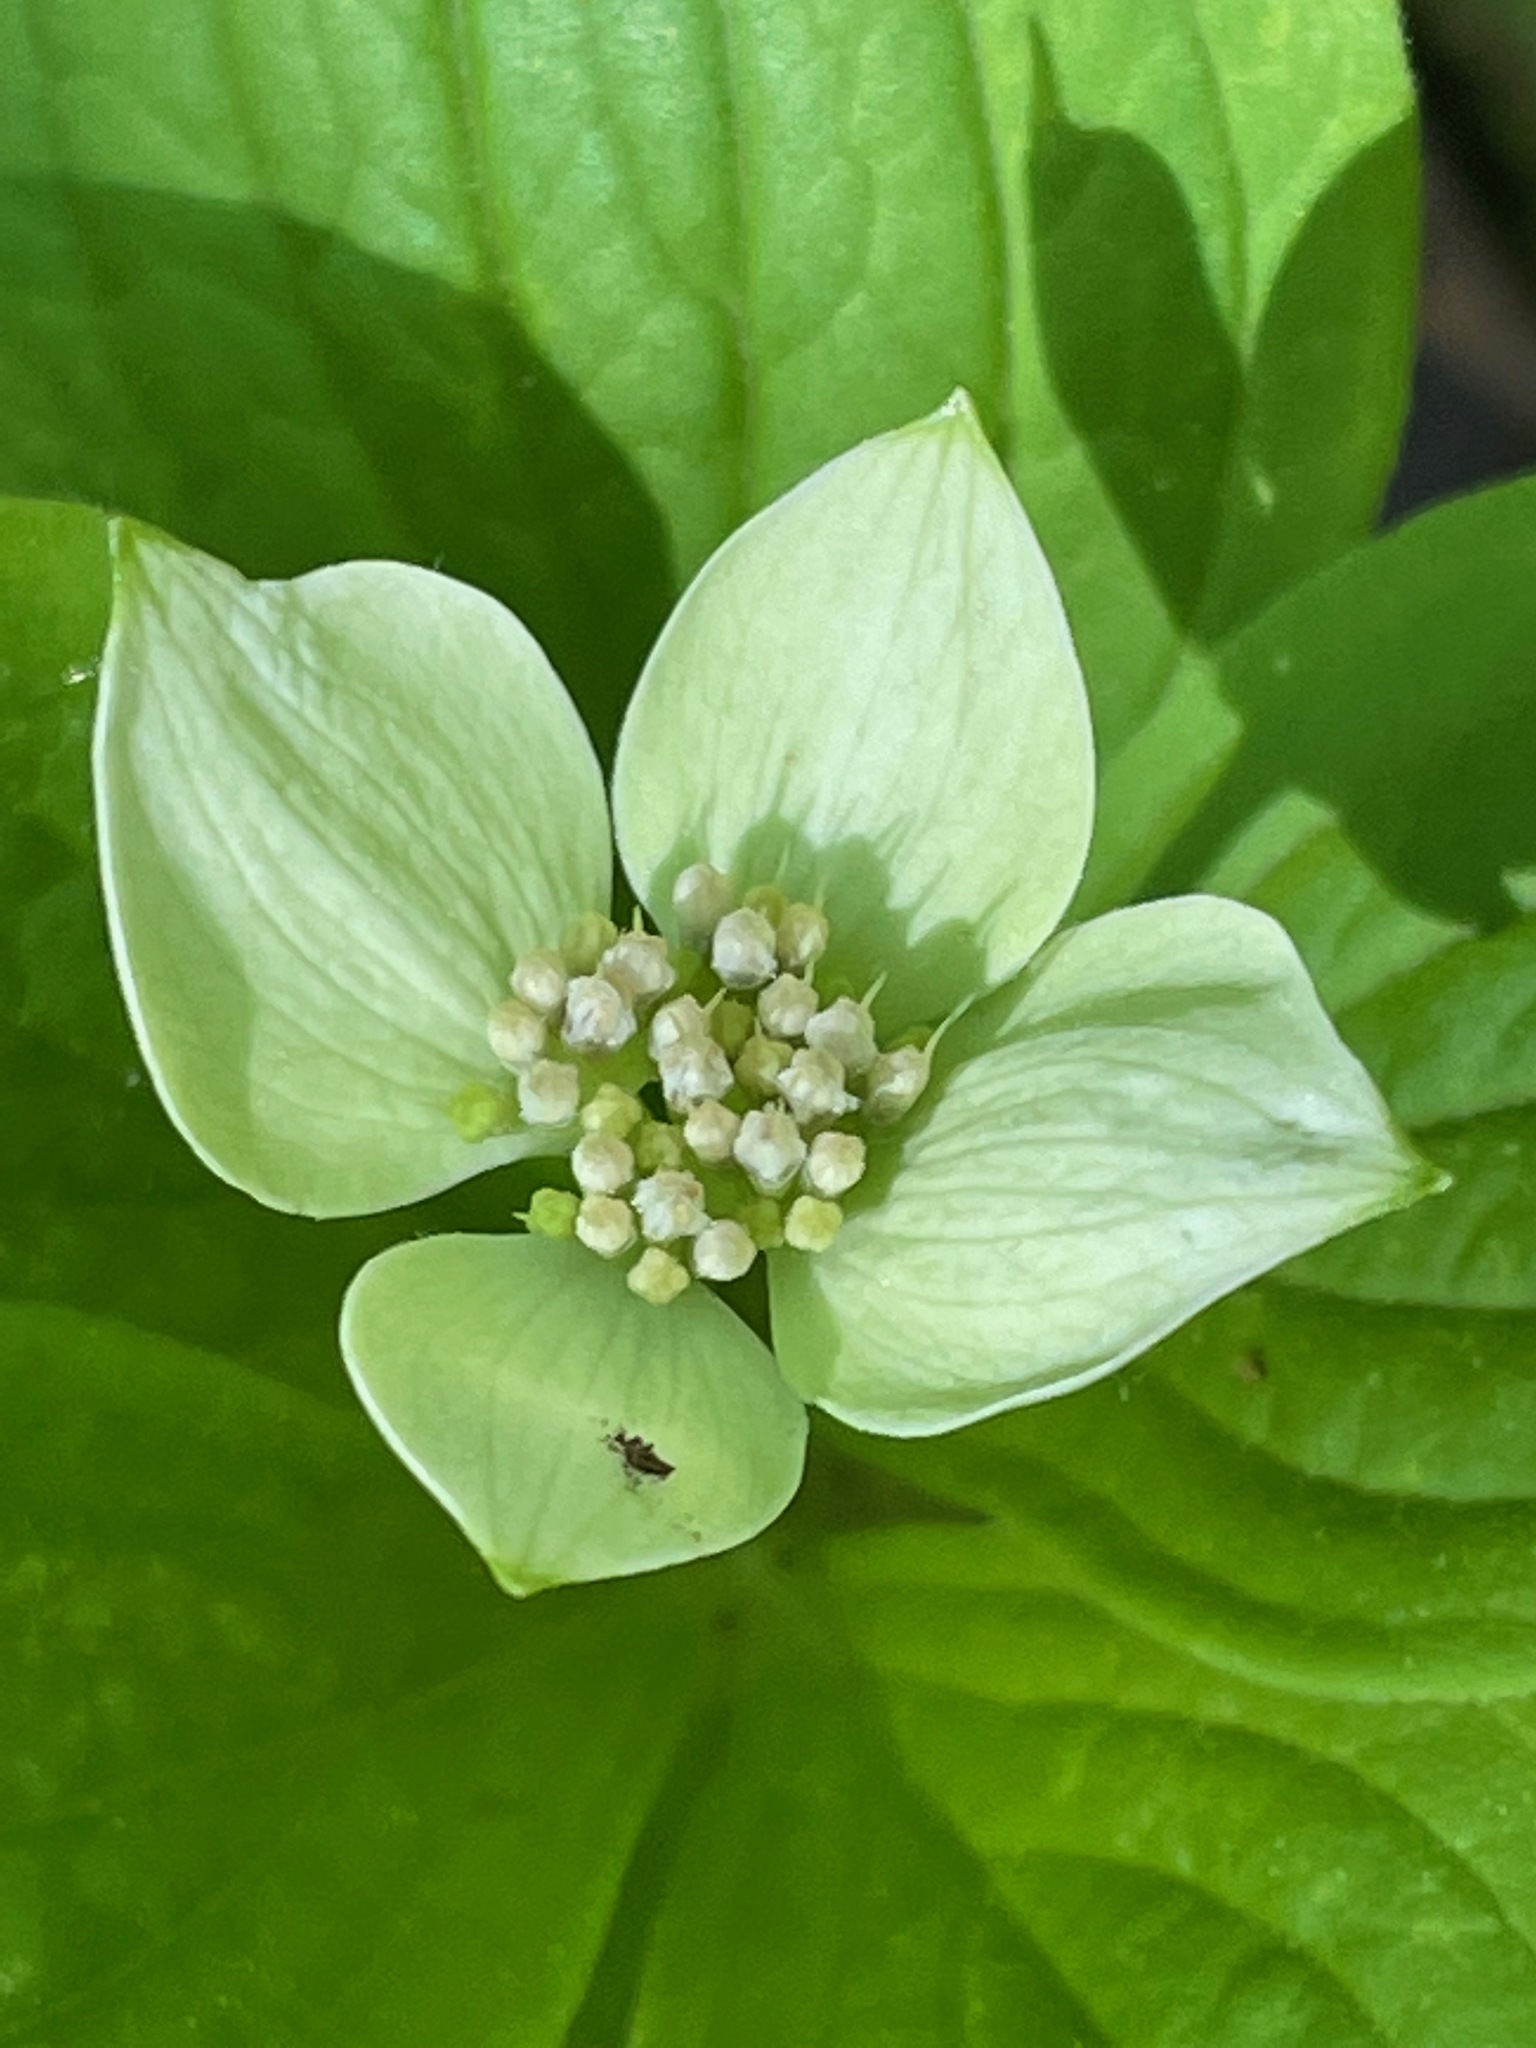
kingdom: Plantae
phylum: Tracheophyta
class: Magnoliopsida
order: Cornales
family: Cornaceae
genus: Cornus
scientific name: Cornus canadensis
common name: Creeping dogwood
